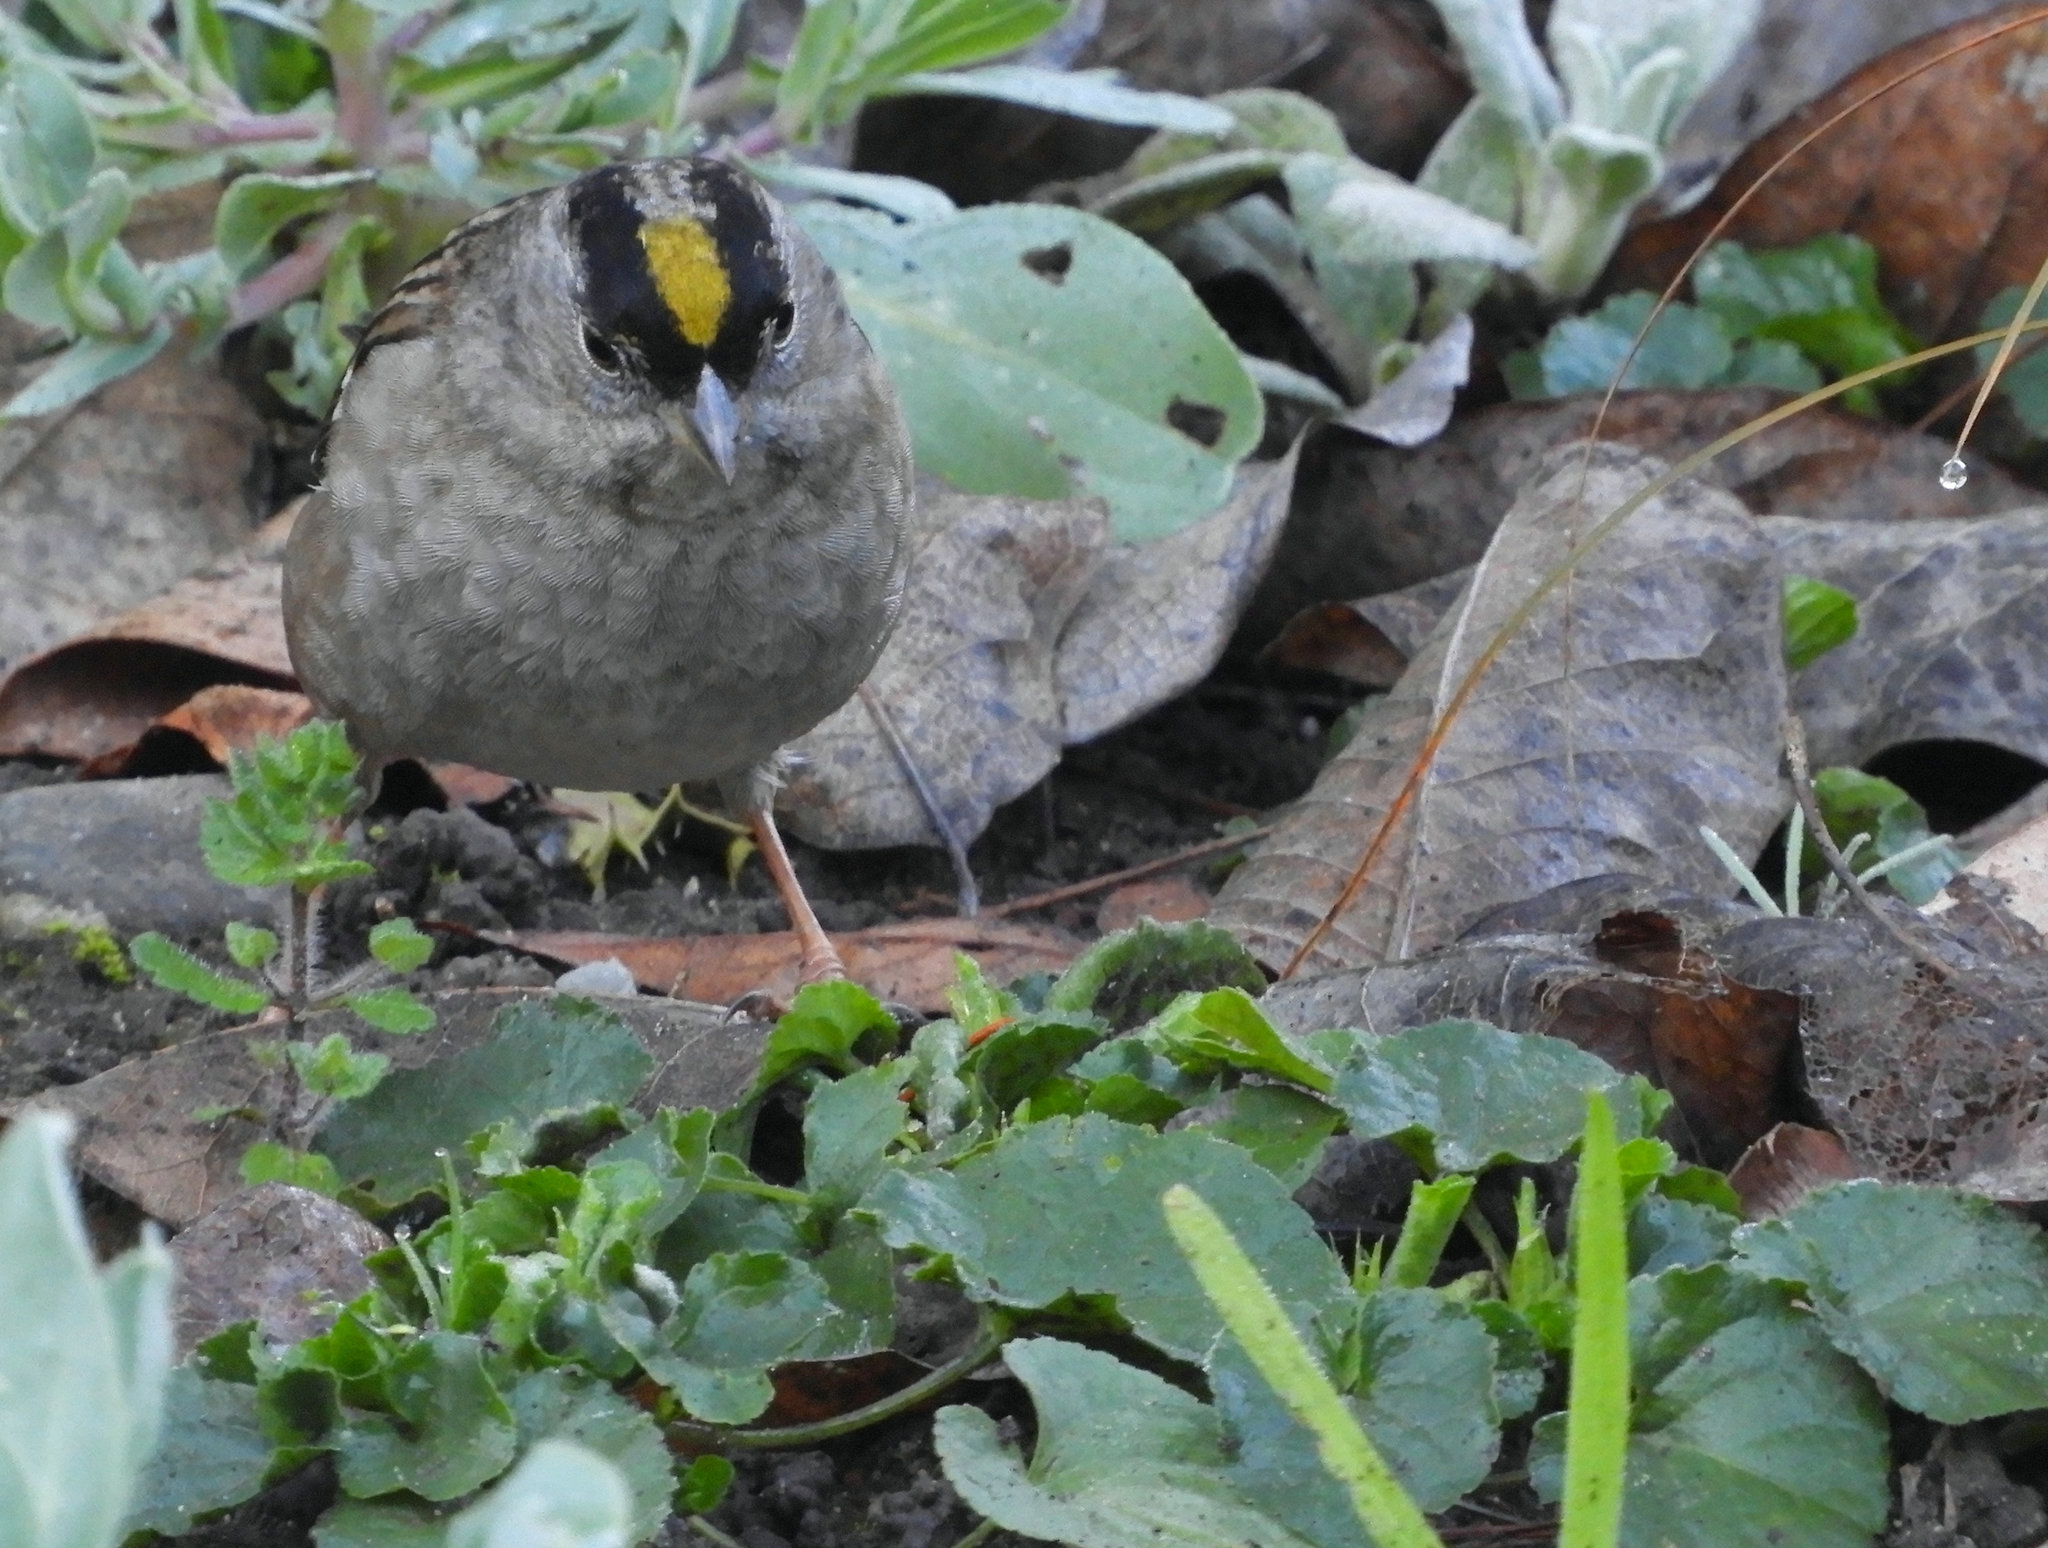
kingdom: Animalia
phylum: Chordata
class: Aves
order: Passeriformes
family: Passerellidae
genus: Zonotrichia
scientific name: Zonotrichia atricapilla
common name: Golden-crowned sparrow
